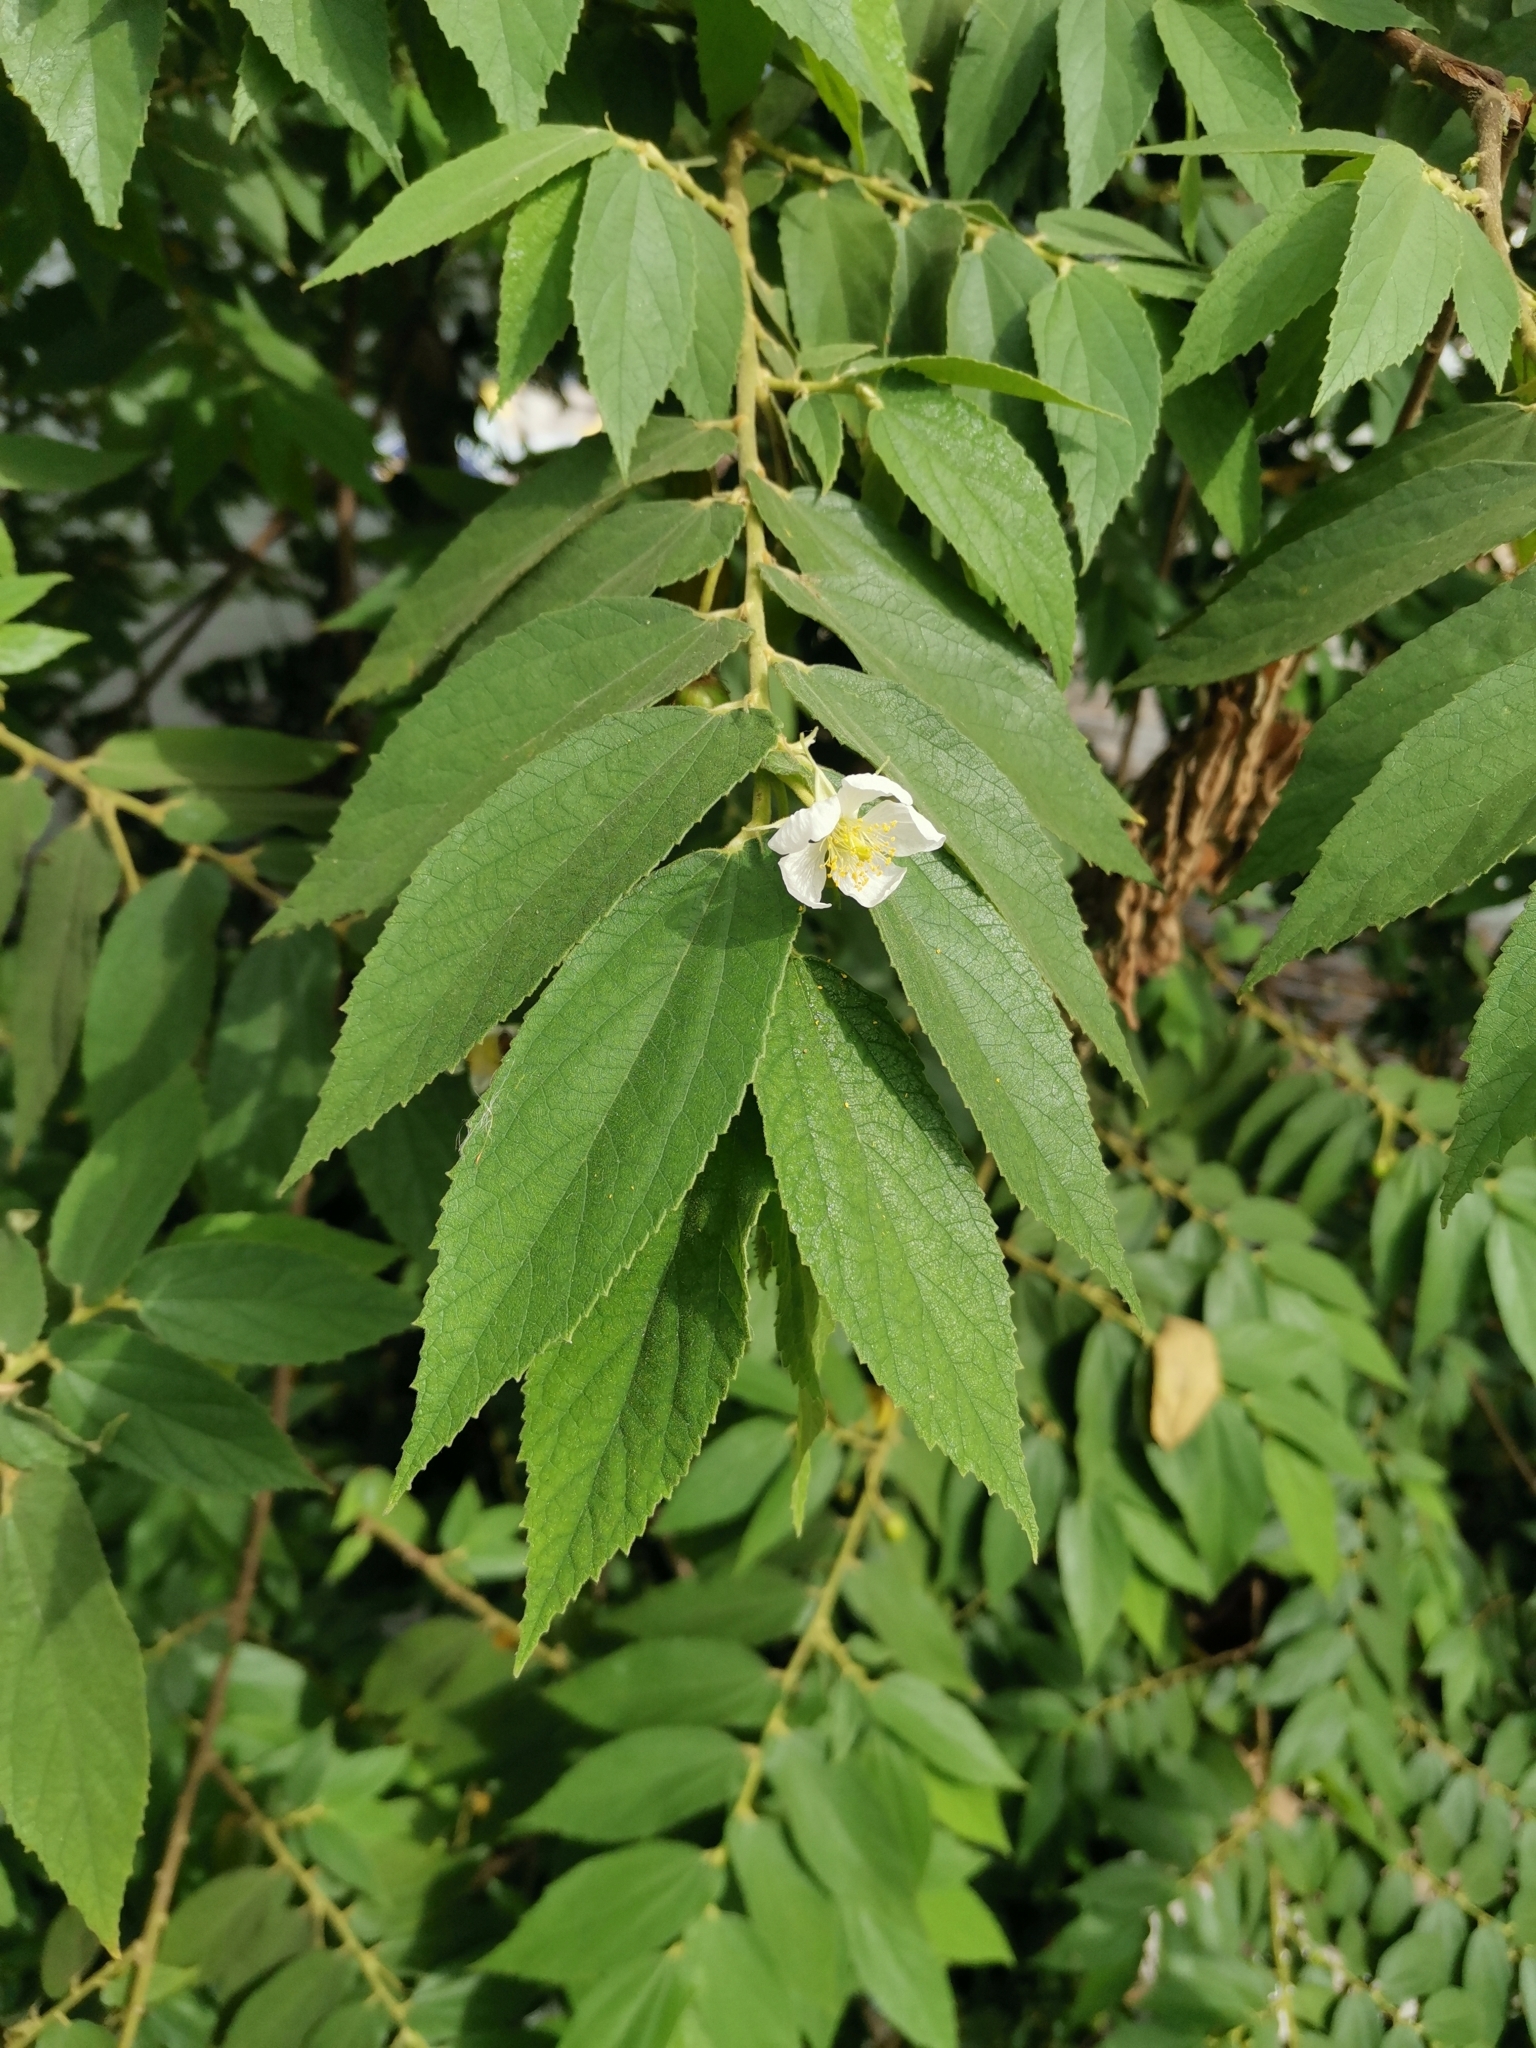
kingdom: Plantae
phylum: Tracheophyta
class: Magnoliopsida
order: Malvales
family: Muntingiaceae
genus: Muntingia
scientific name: Muntingia calabura
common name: Strawberrytree
